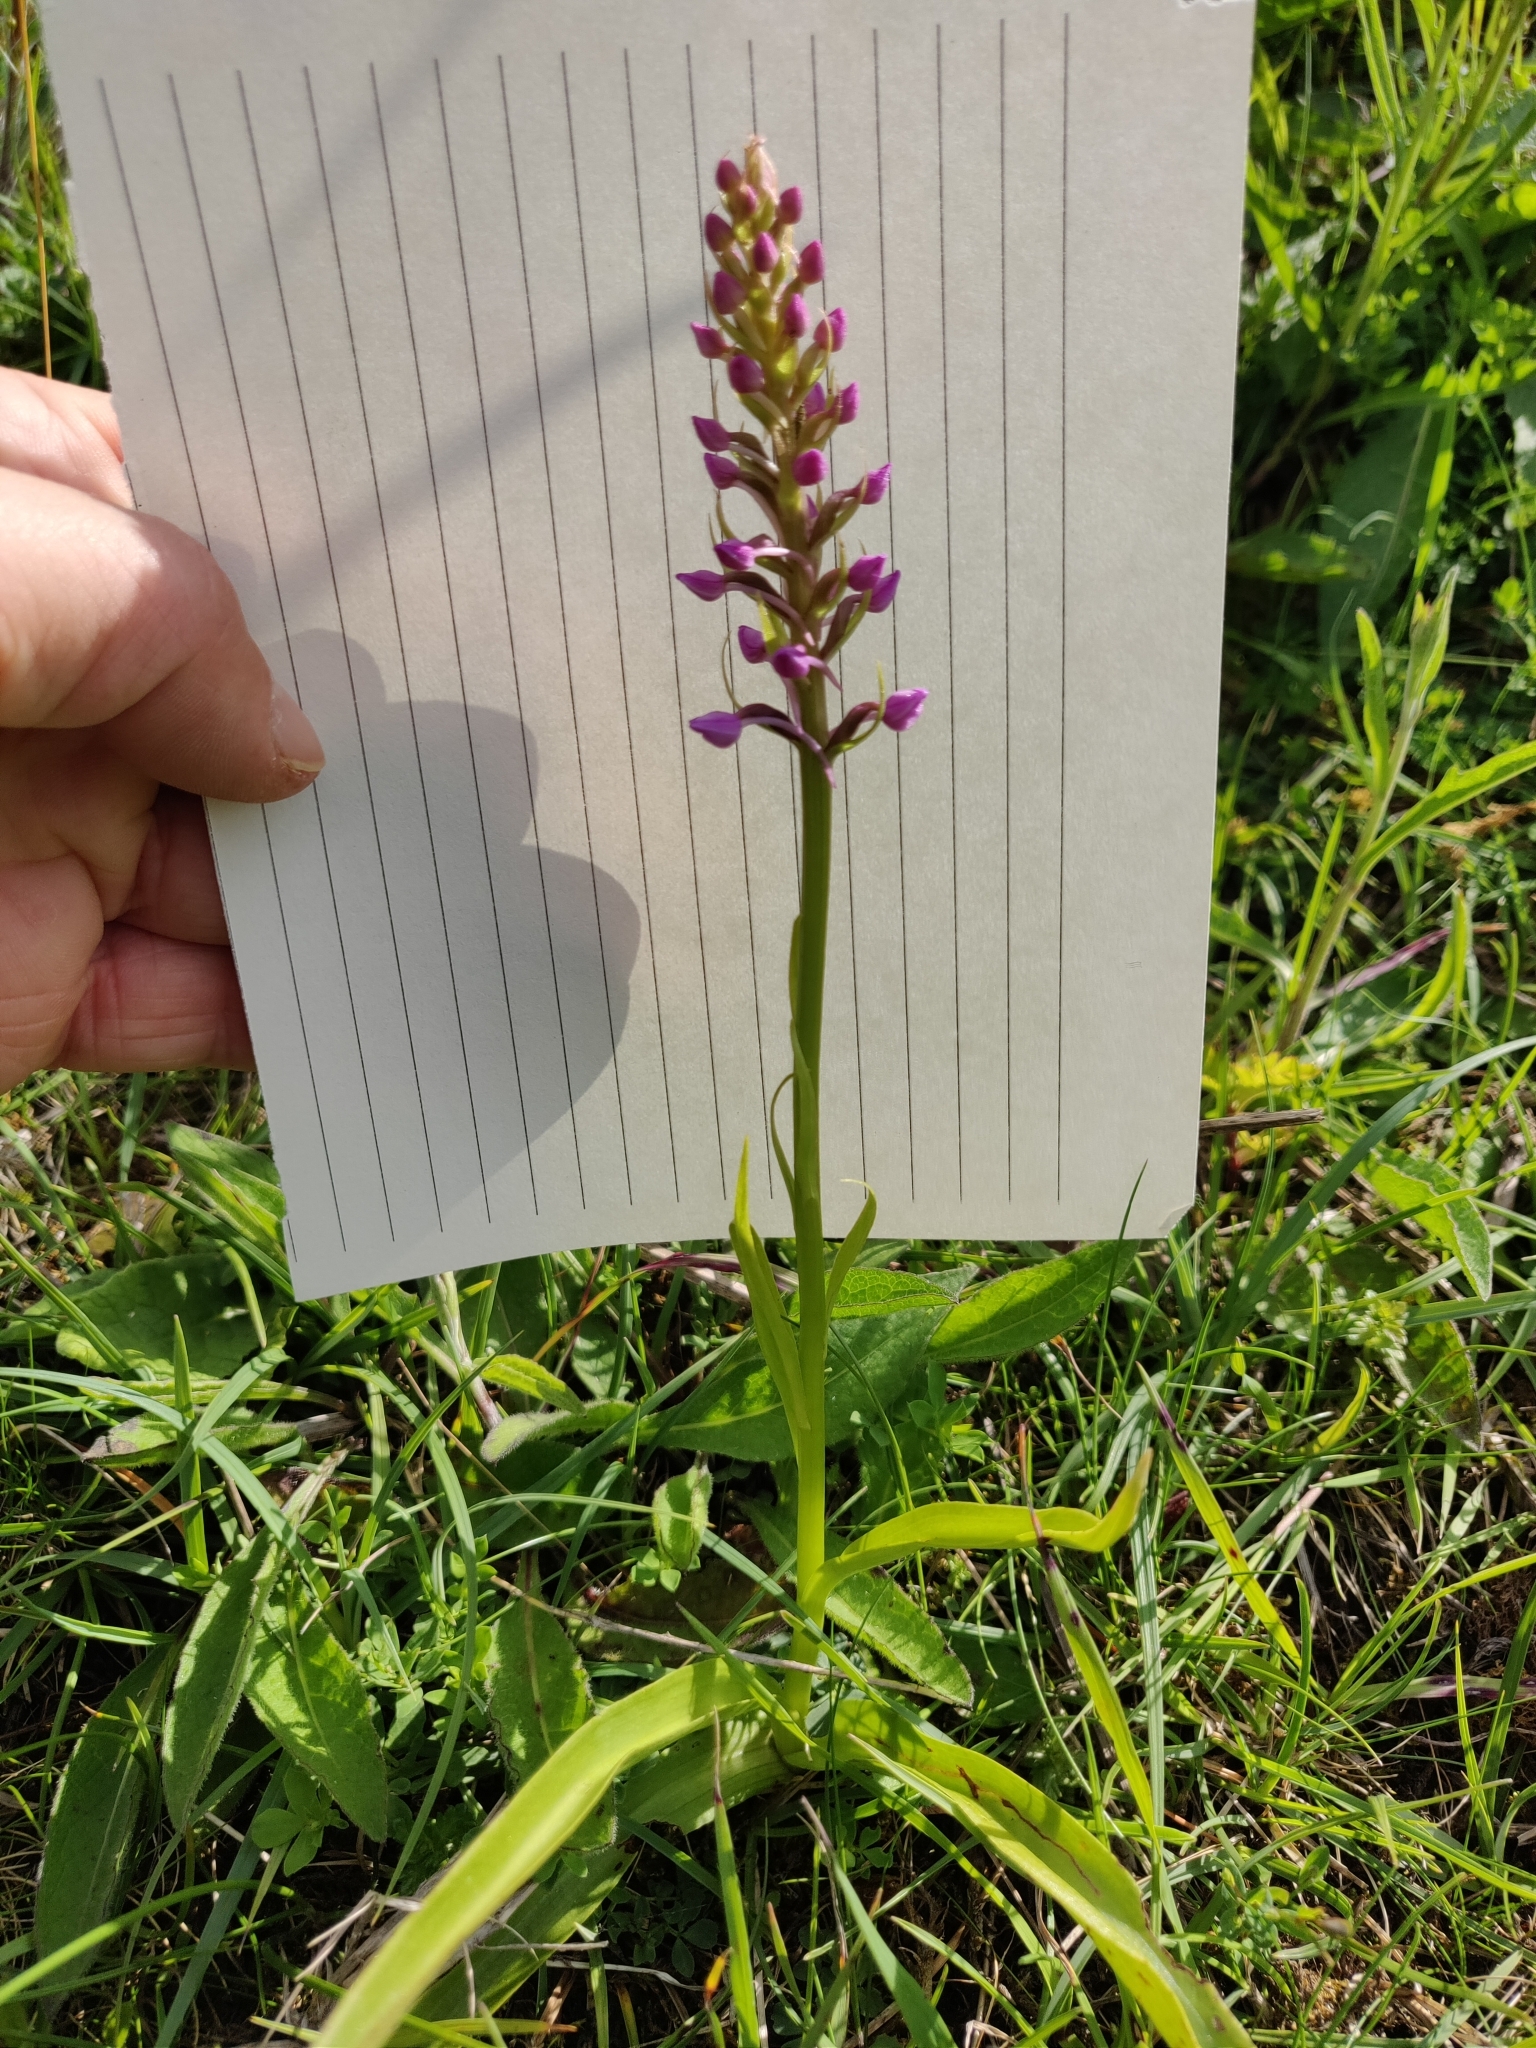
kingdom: Plantae
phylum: Tracheophyta
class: Liliopsida
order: Asparagales
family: Orchidaceae
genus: Gymnadenia
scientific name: Gymnadenia conopsea
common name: Fragrant orchid
